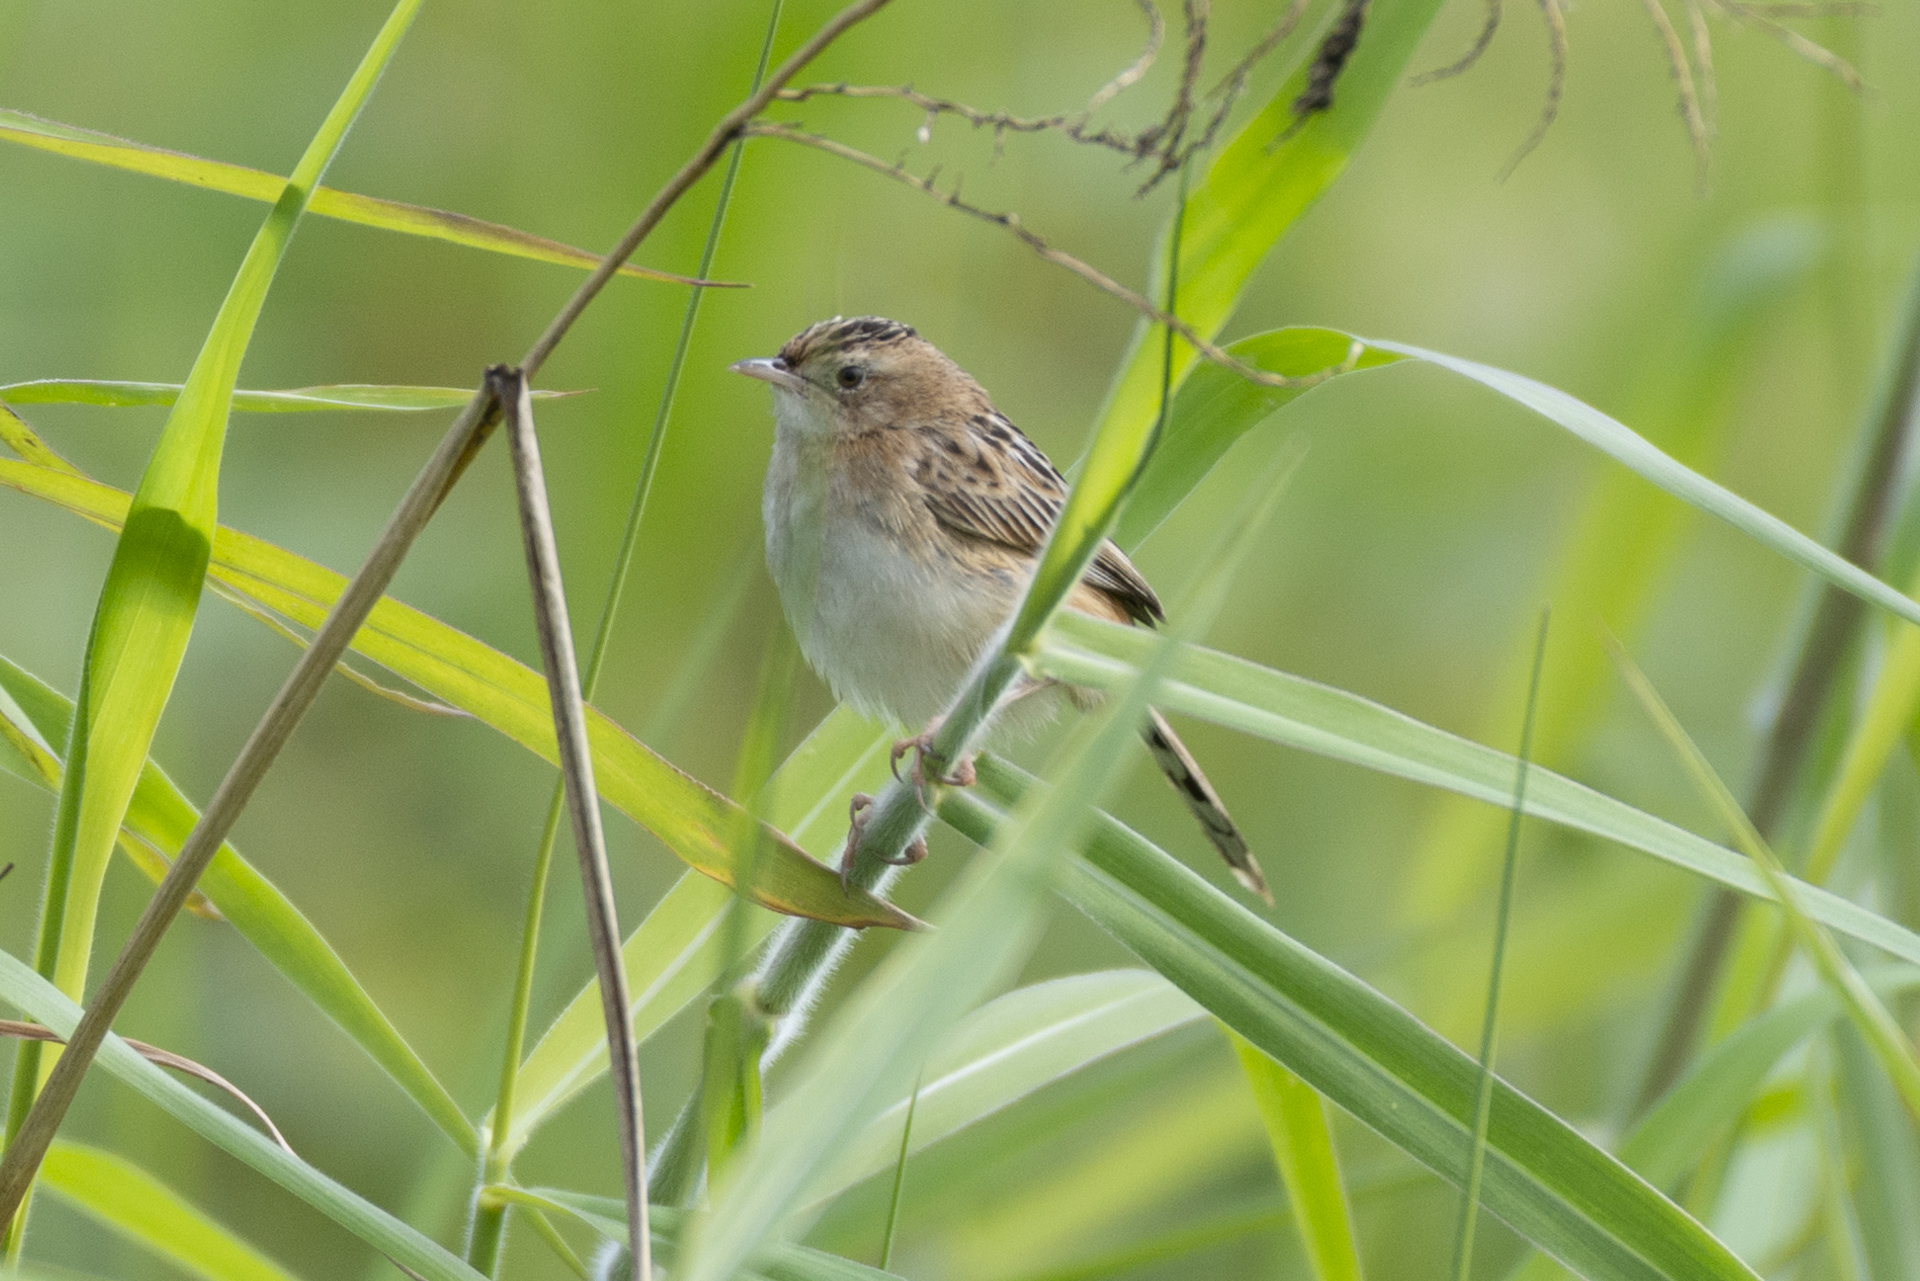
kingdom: Animalia
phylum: Chordata
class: Aves
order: Passeriformes
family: Cisticolidae
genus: Cisticola
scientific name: Cisticola juncidis
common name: Zitting cisticola
